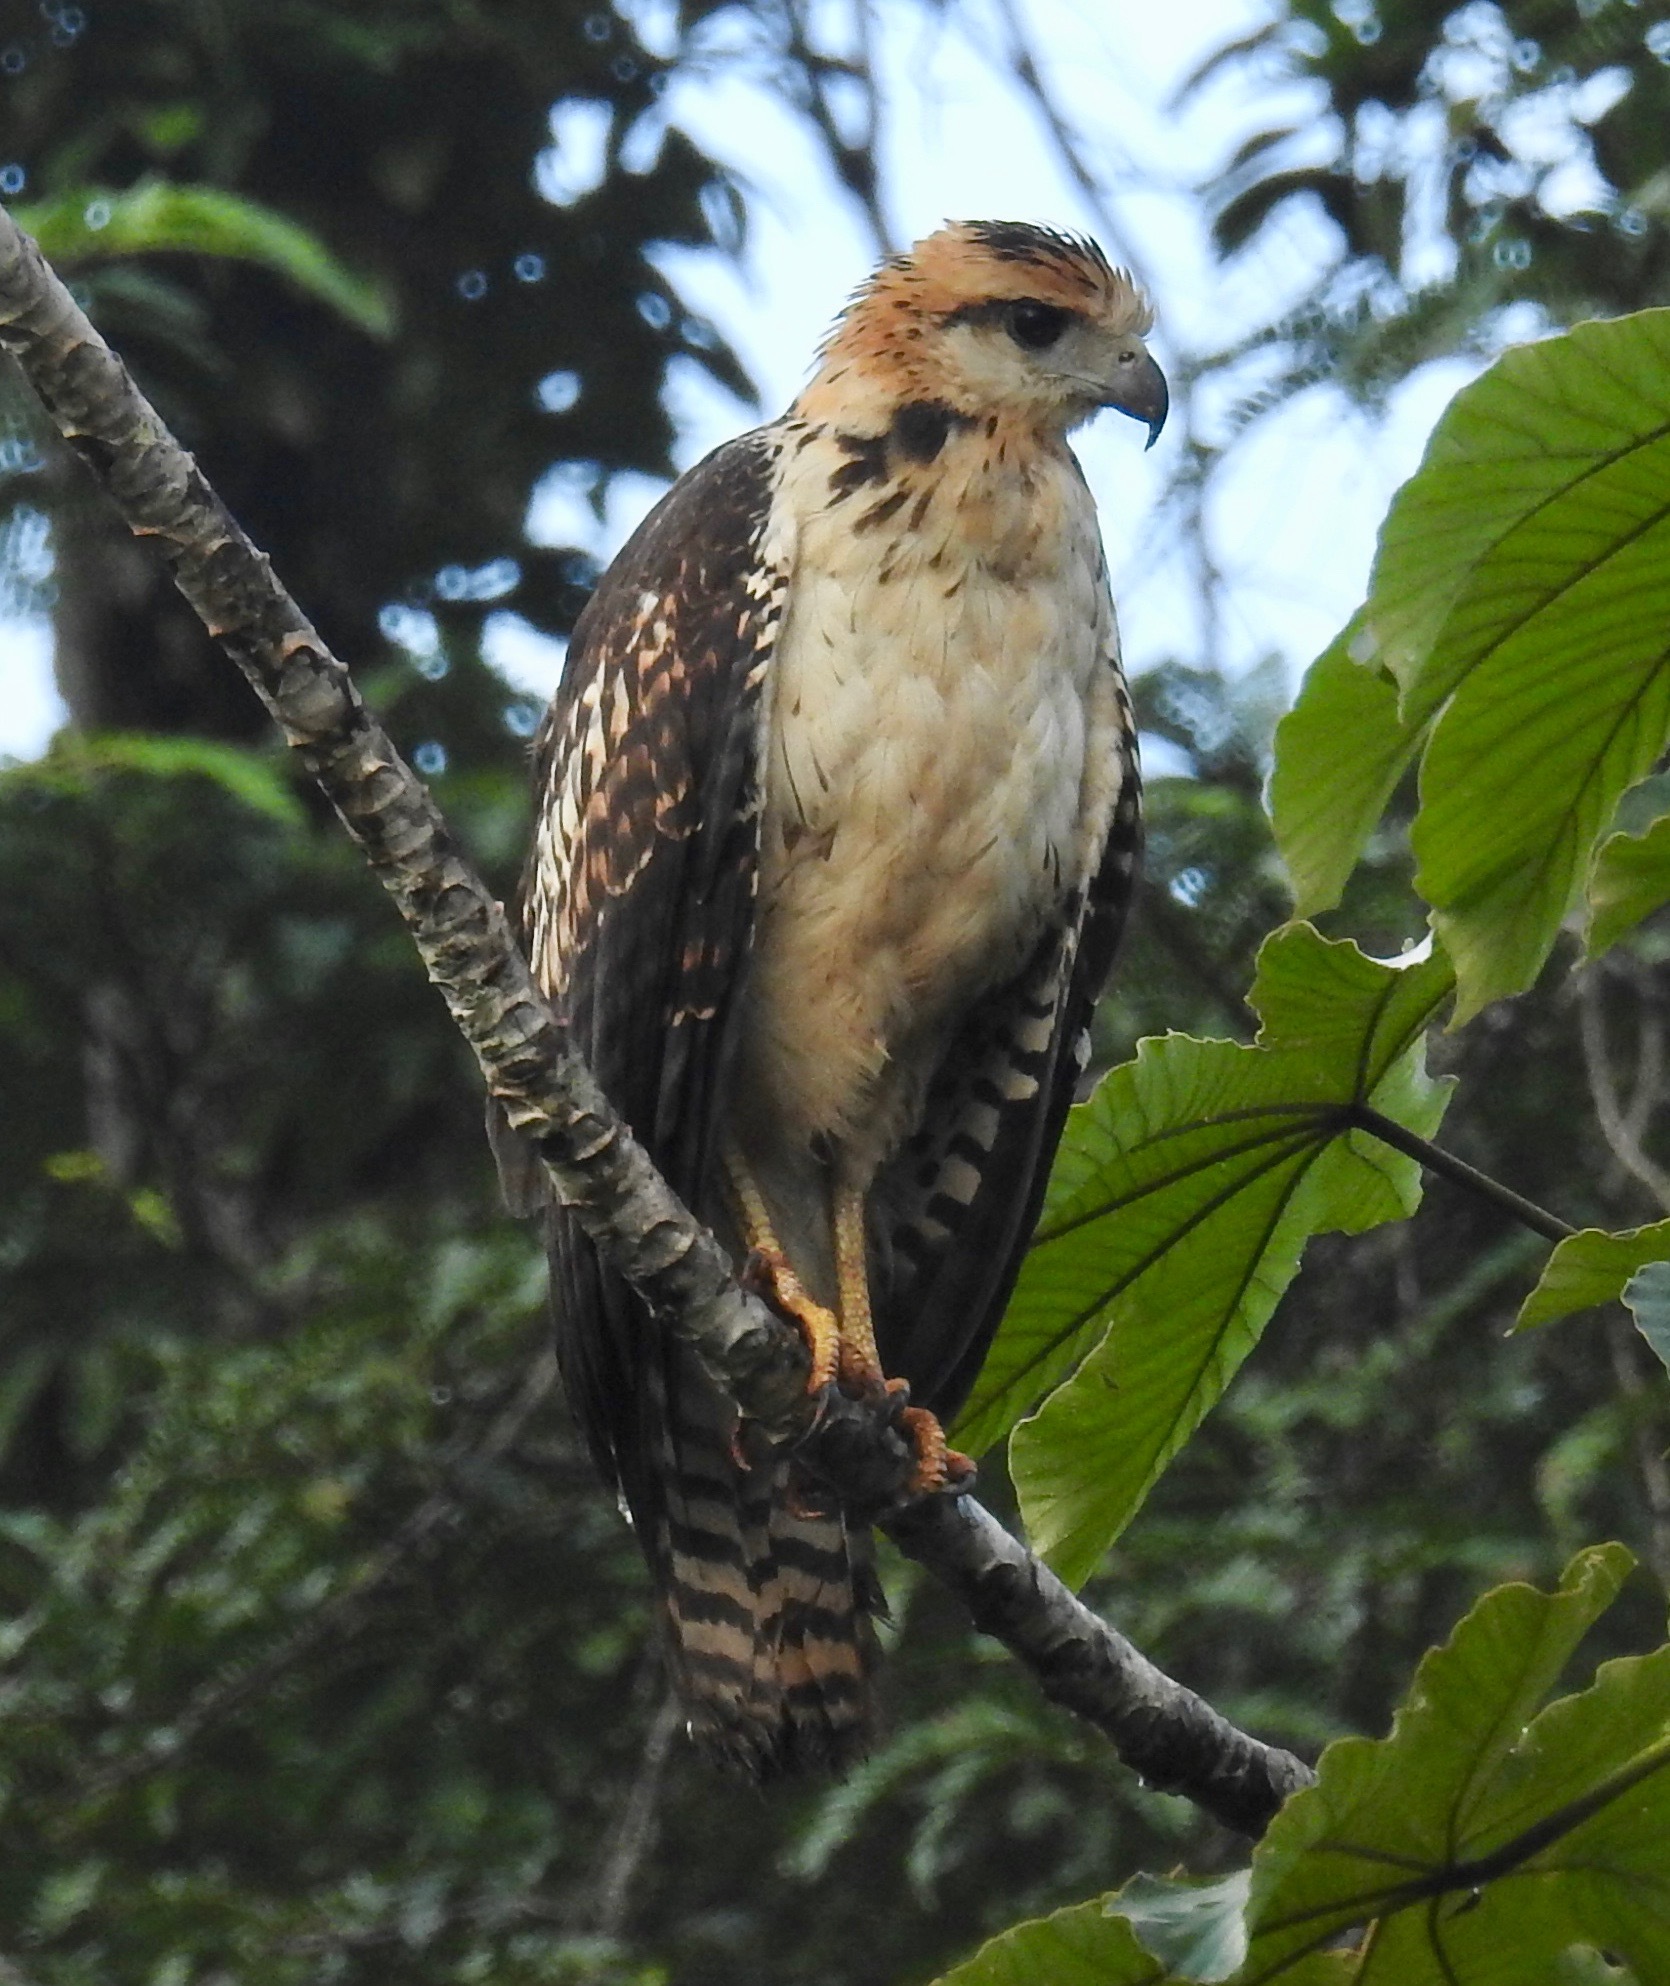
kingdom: Animalia
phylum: Chordata
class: Aves
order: Accipitriformes
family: Accipitridae
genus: Buteogallus
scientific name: Buteogallus urubitinga
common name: Great black hawk
